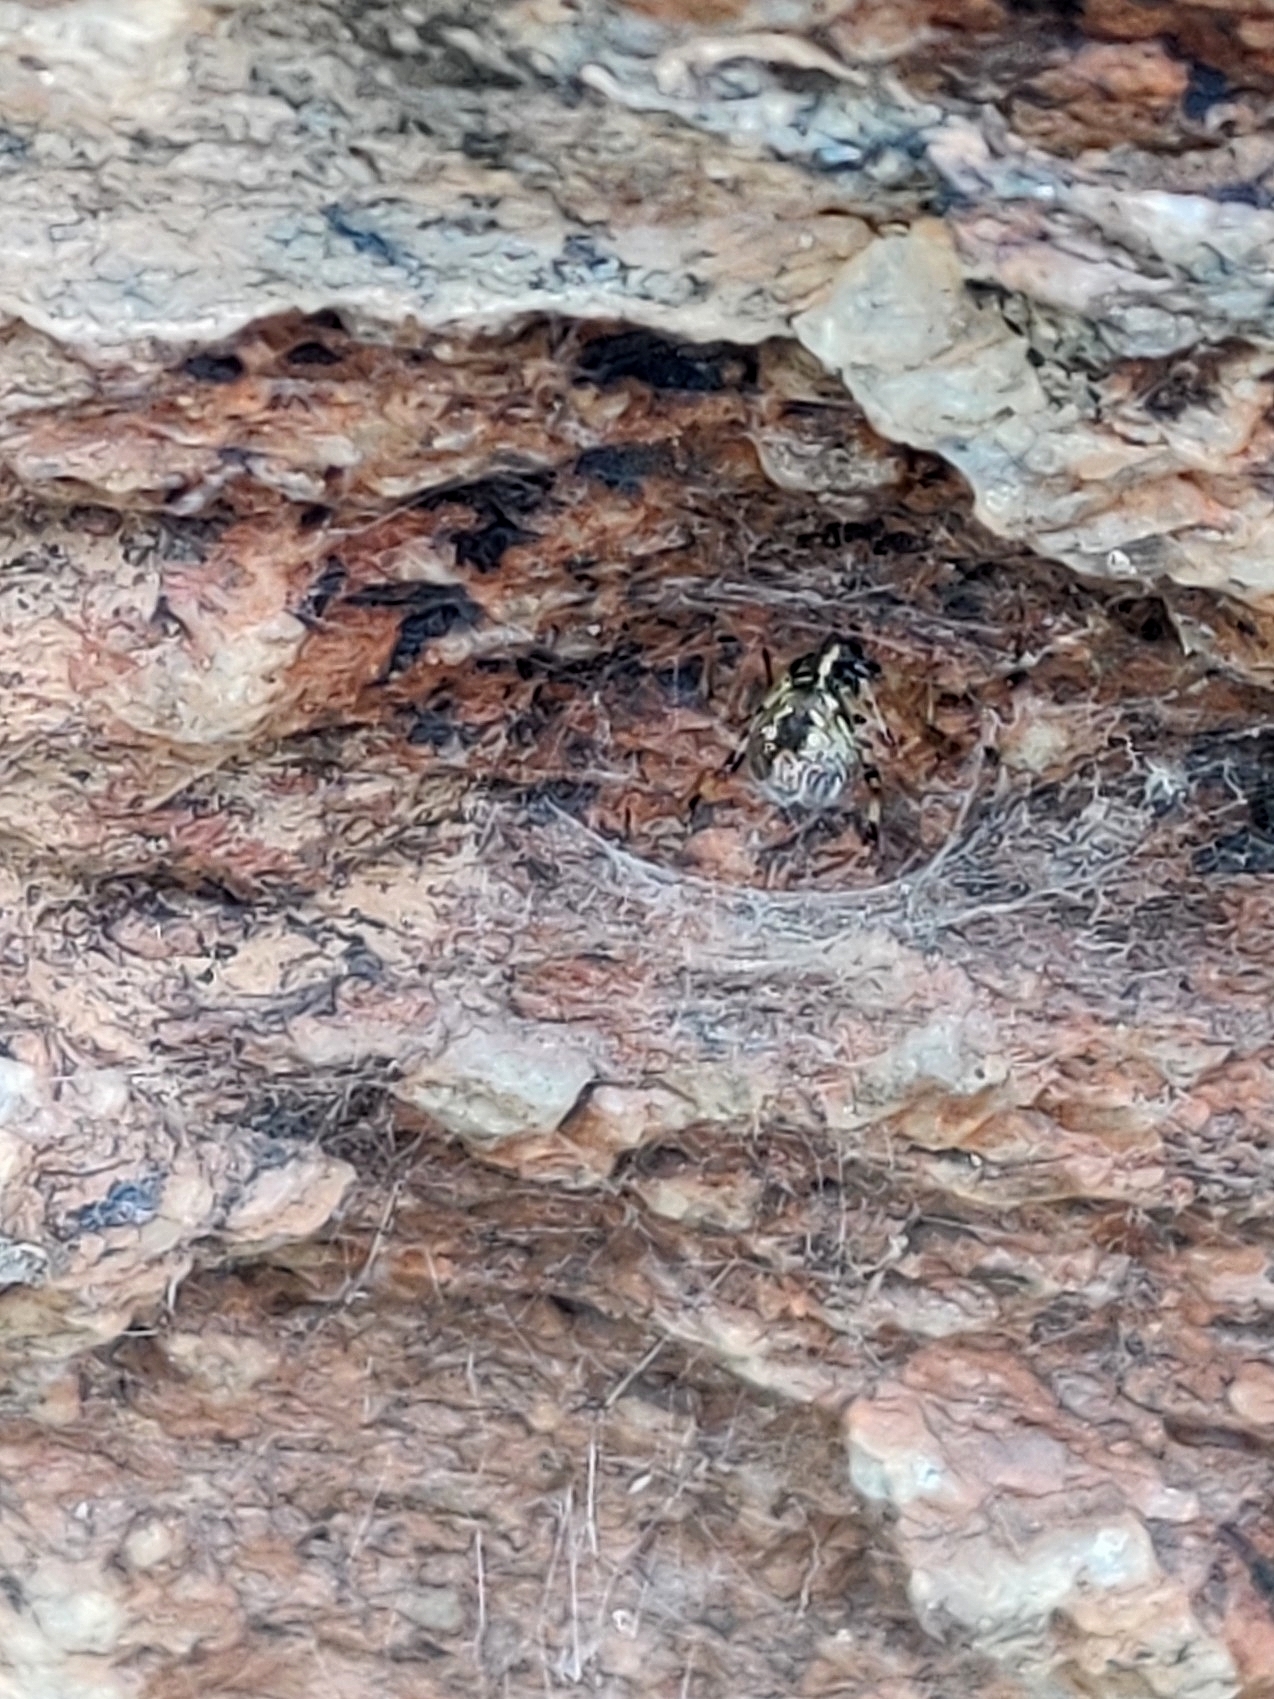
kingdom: Animalia
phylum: Arthropoda
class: Arachnida
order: Araneae
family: Araneidae
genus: Nephilengys
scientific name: Nephilengys malabarensis
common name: Asian hermit spider
